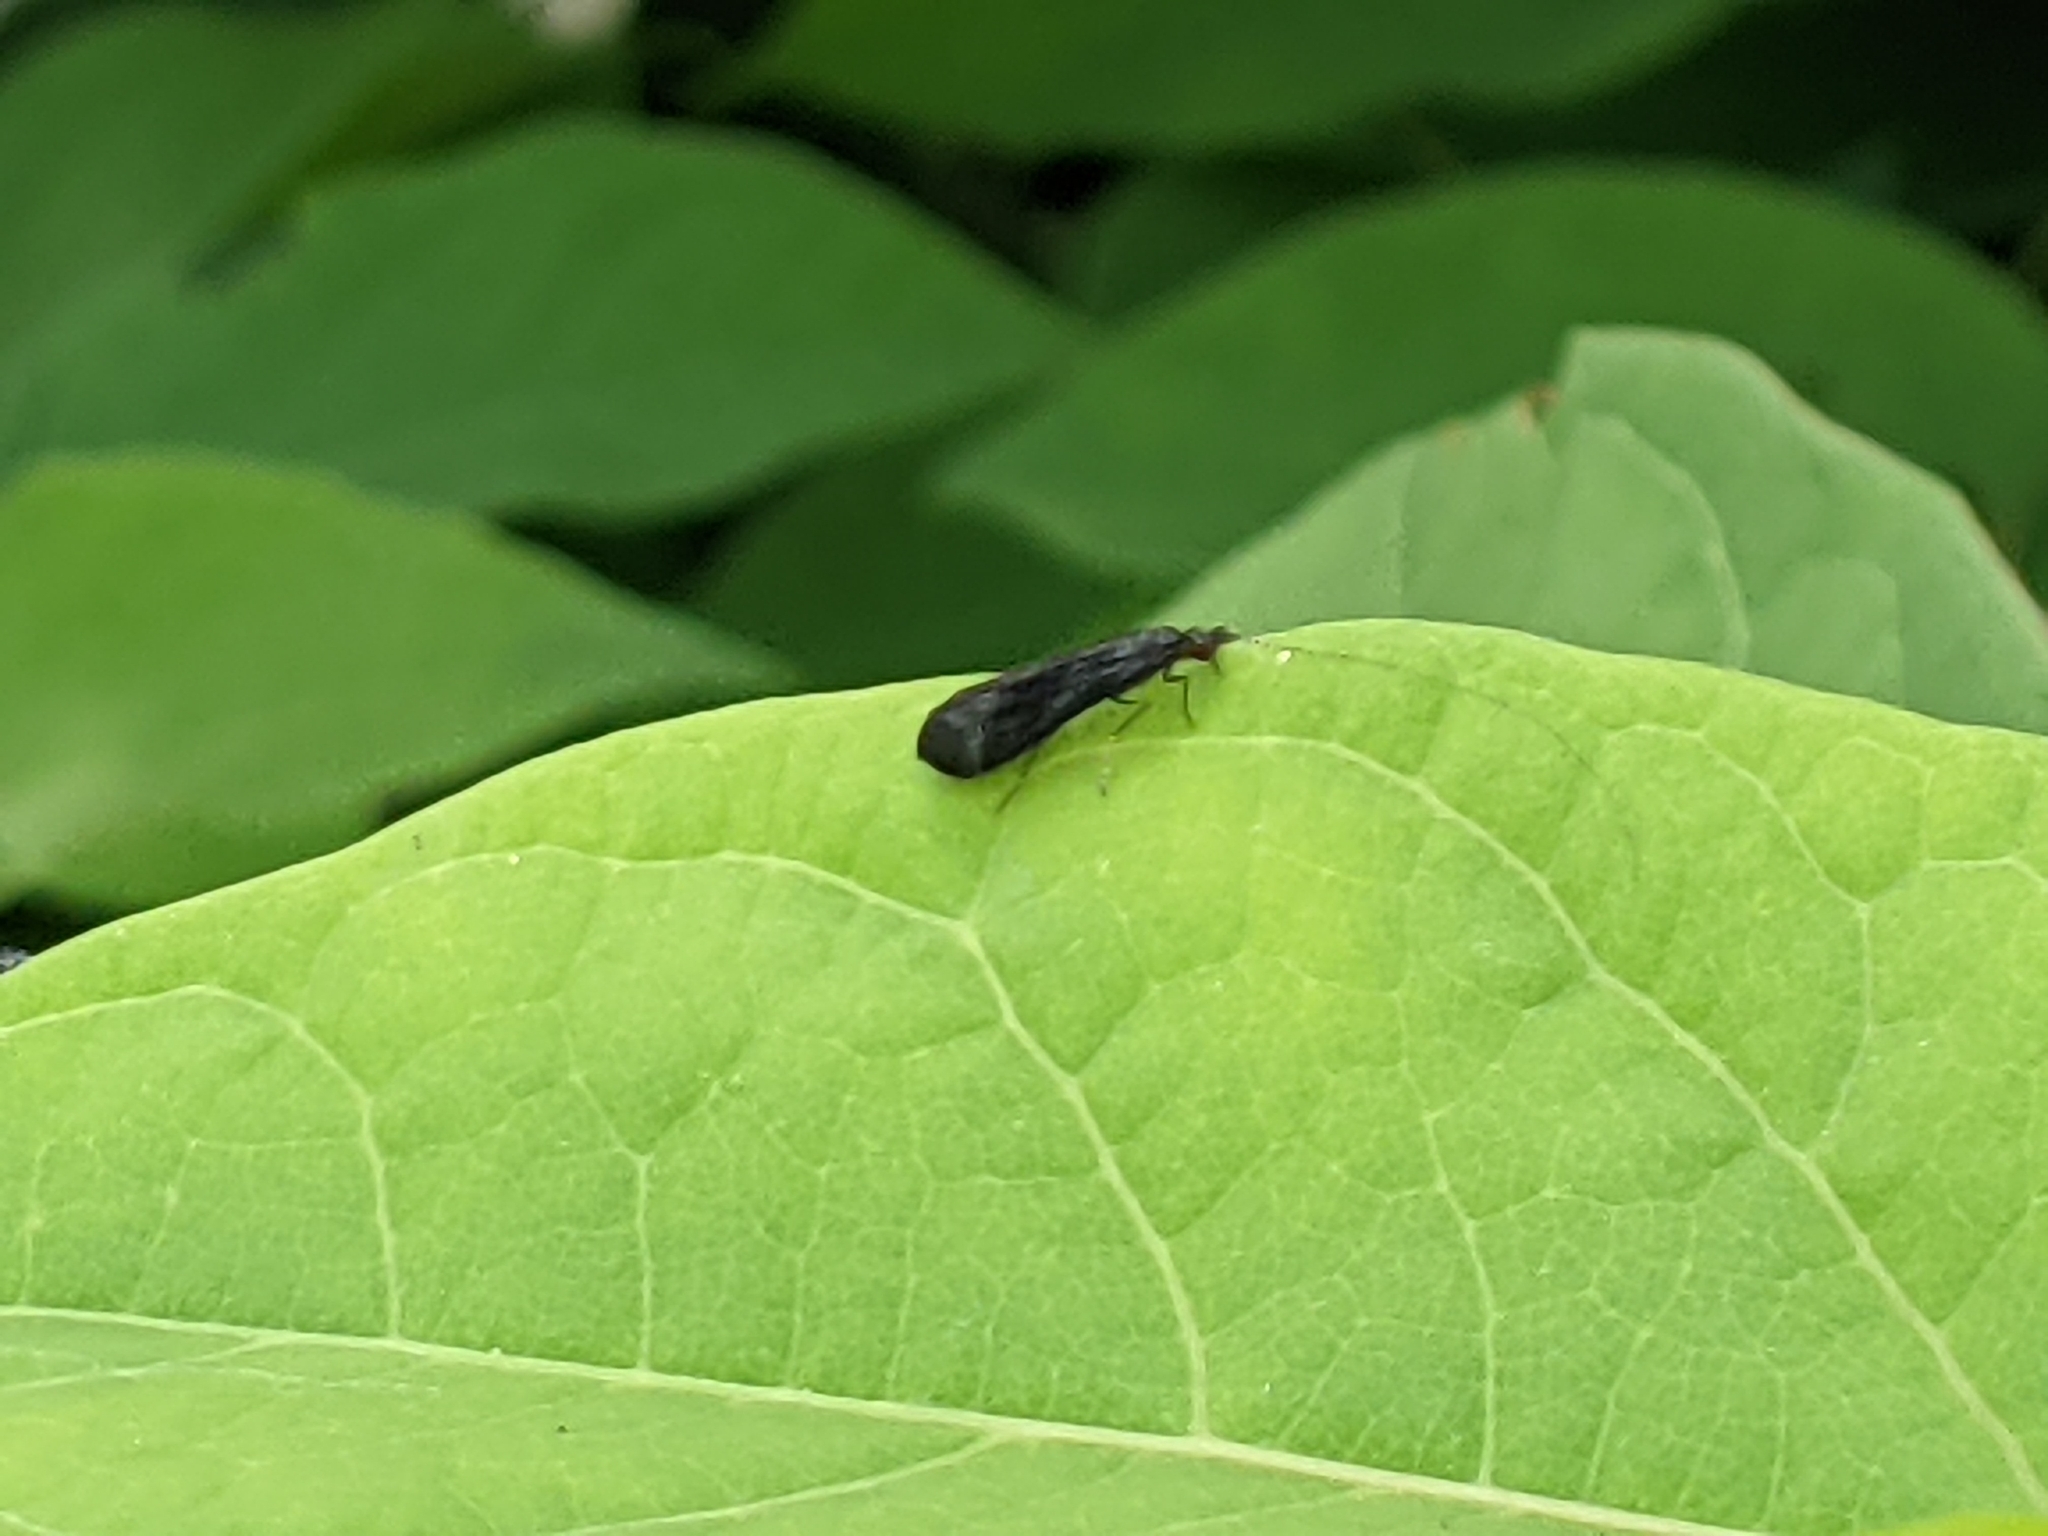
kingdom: Animalia
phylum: Arthropoda
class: Insecta
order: Trichoptera
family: Leptoceridae
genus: Mystacides
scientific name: Mystacides sepulchralis
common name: Black dancer caddisfly
